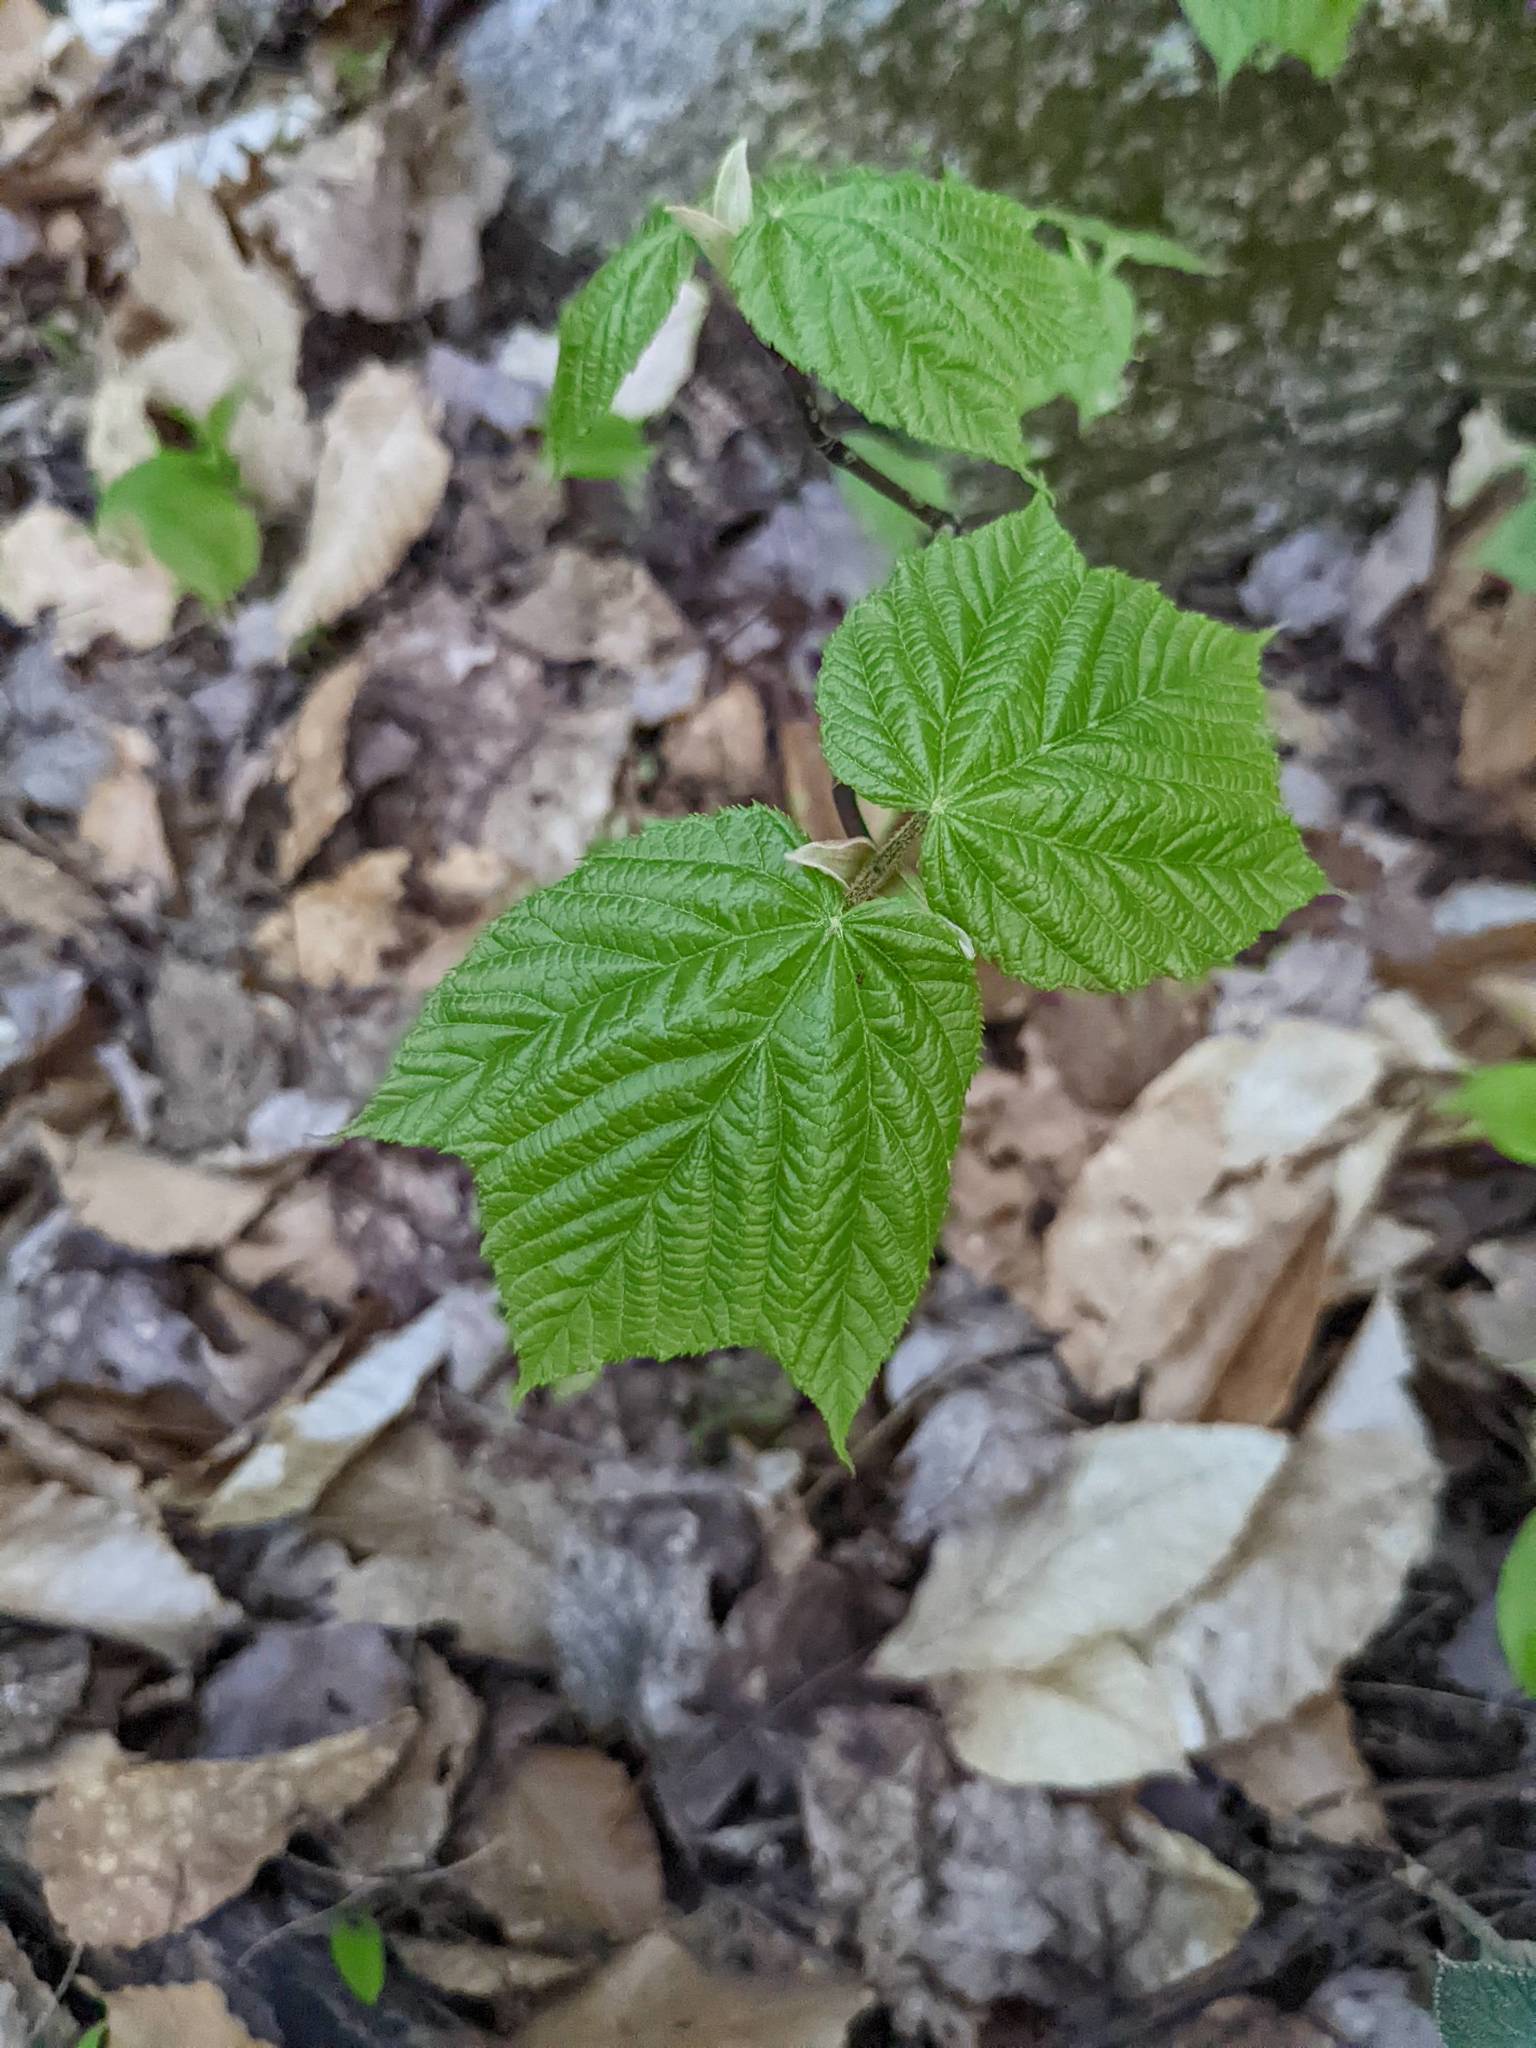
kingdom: Plantae
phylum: Tracheophyta
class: Magnoliopsida
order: Sapindales
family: Sapindaceae
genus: Acer
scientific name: Acer pensylvanicum
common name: Moosewood
